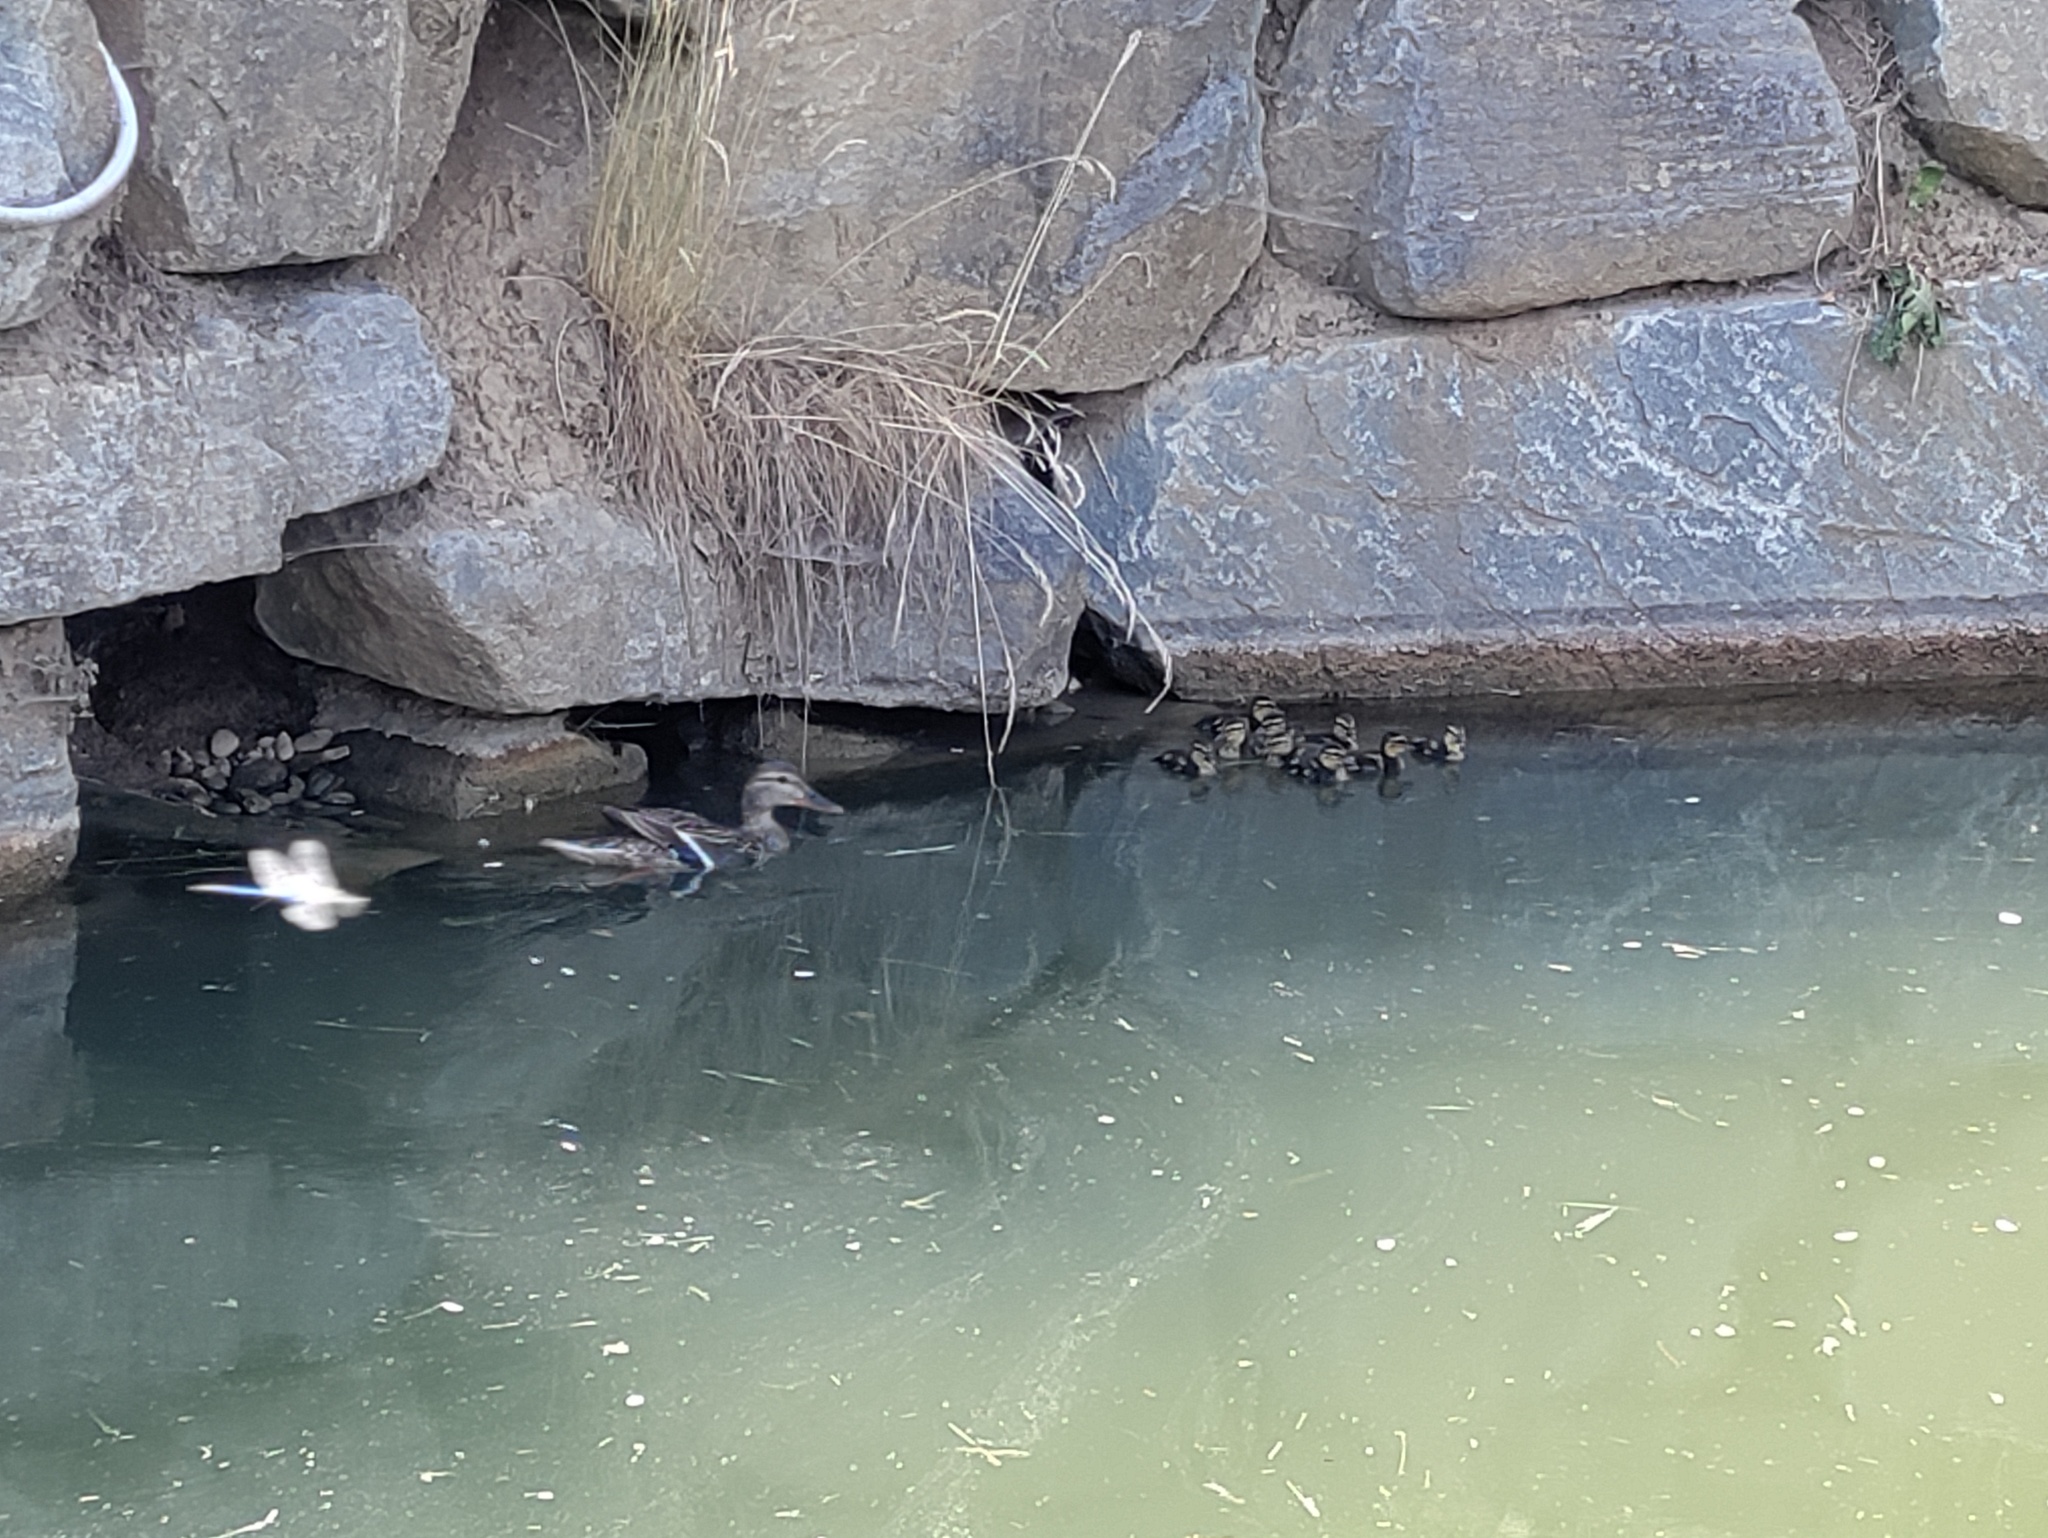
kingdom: Animalia
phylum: Chordata
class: Aves
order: Anseriformes
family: Anatidae
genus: Anas
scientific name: Anas platyrhynchos
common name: Mallard
